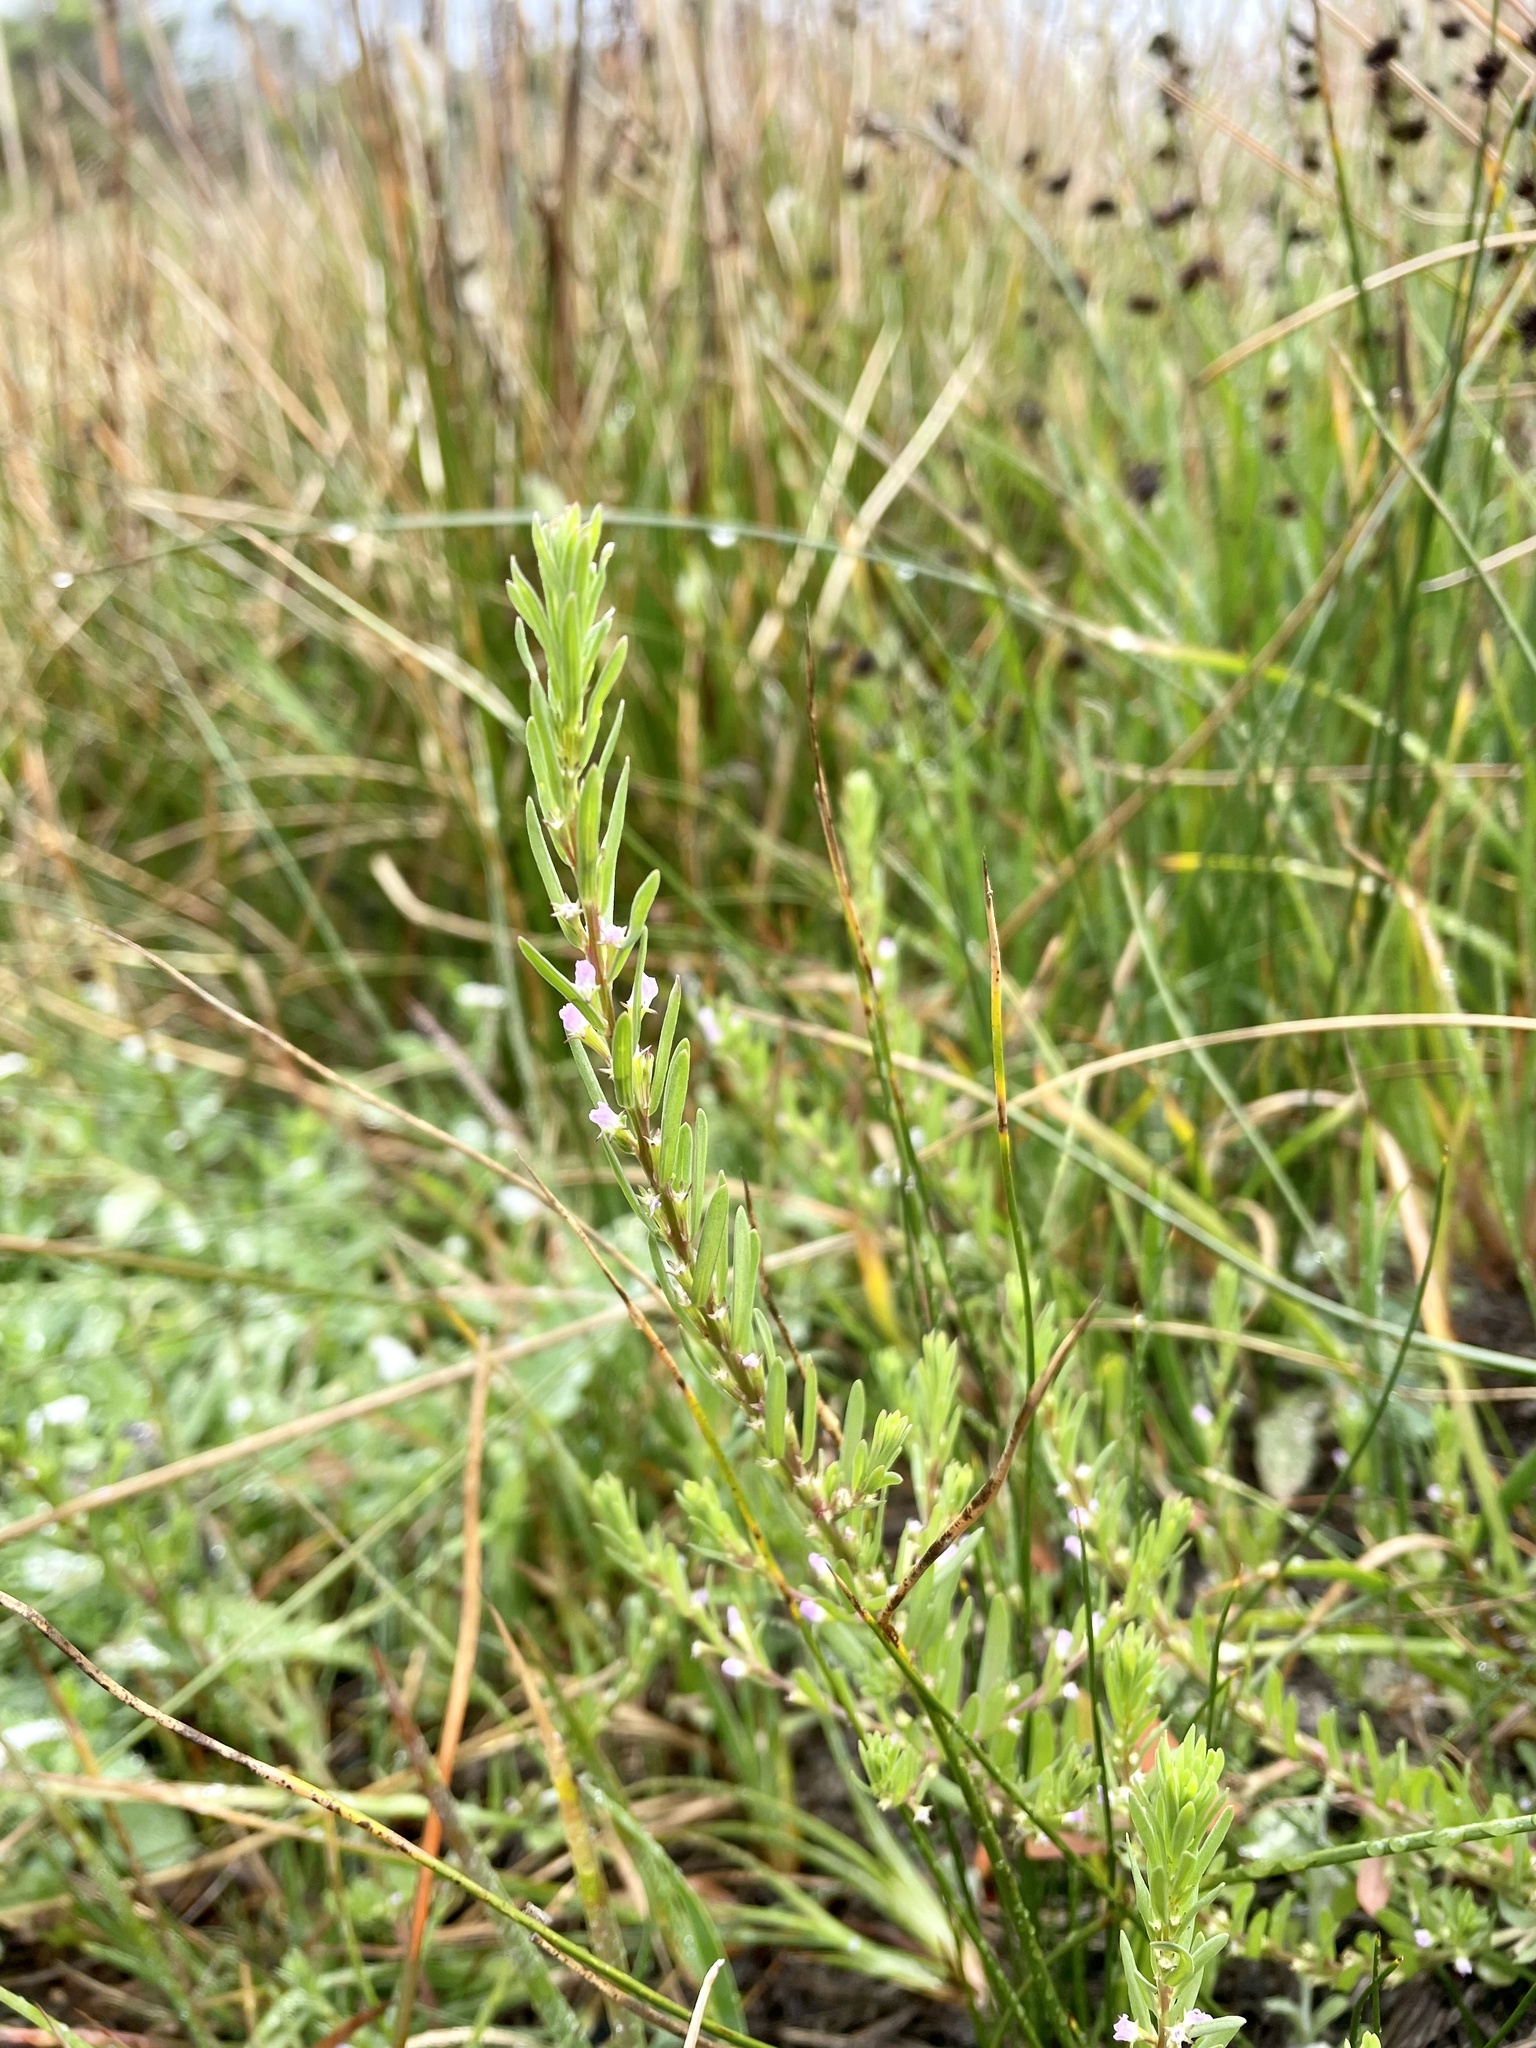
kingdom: Plantae
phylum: Tracheophyta
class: Magnoliopsida
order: Myrtales
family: Lythraceae
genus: Lythrum
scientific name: Lythrum hyssopifolia
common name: Grass-poly
